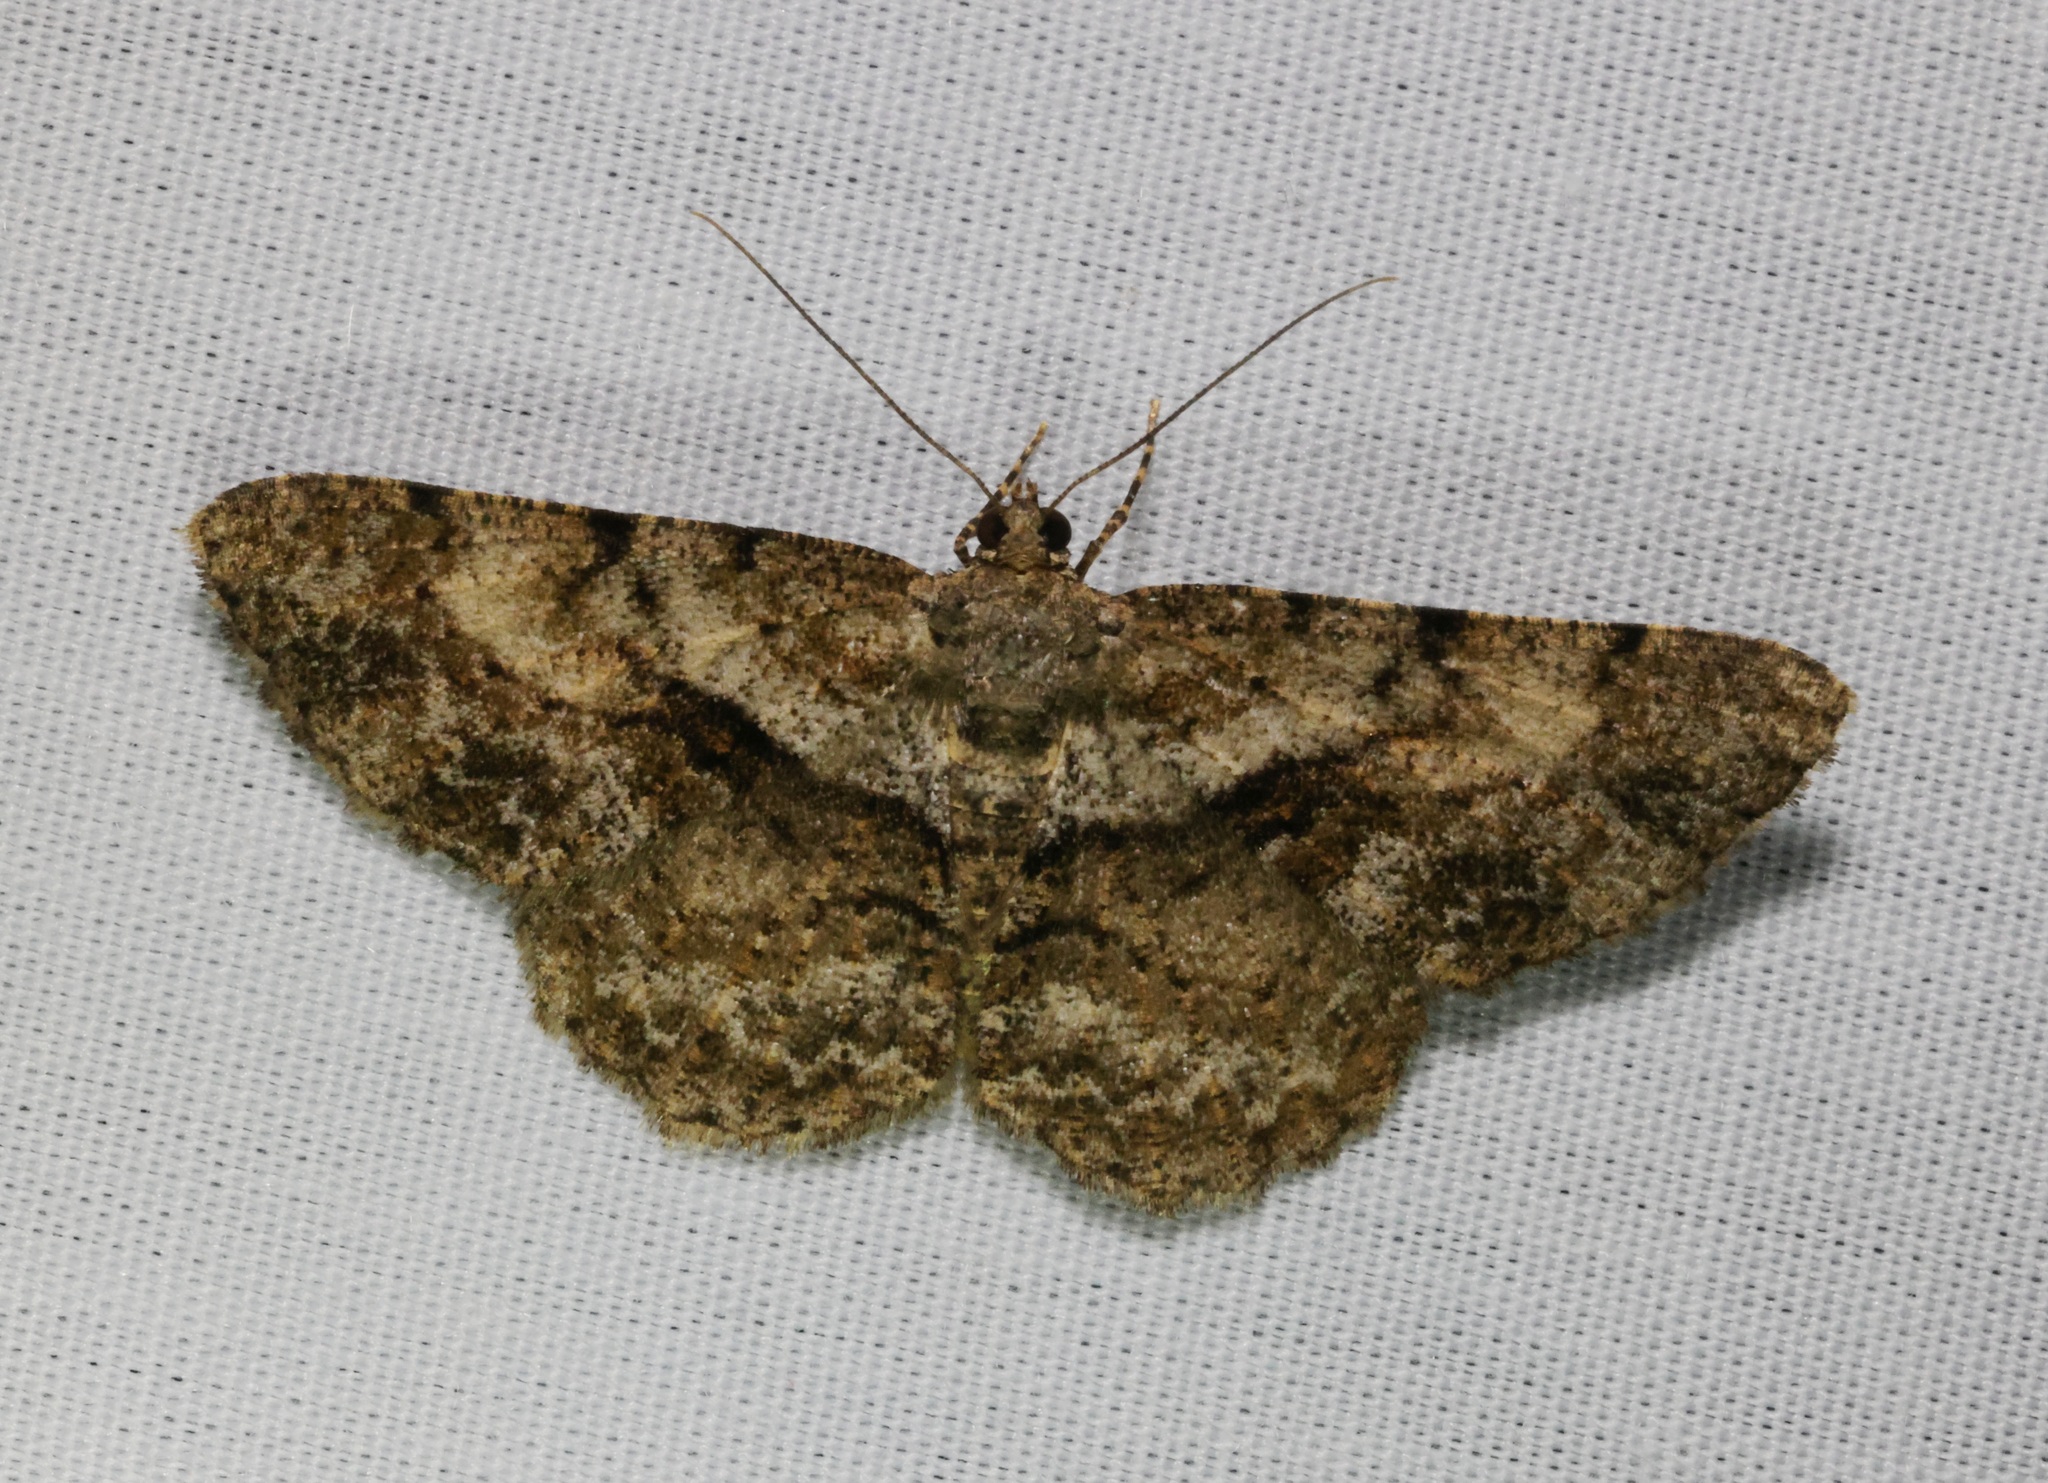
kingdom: Animalia
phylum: Arthropoda
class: Insecta
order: Lepidoptera
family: Geometridae
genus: Psilalcis
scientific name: Psilalcis galsworthyi
